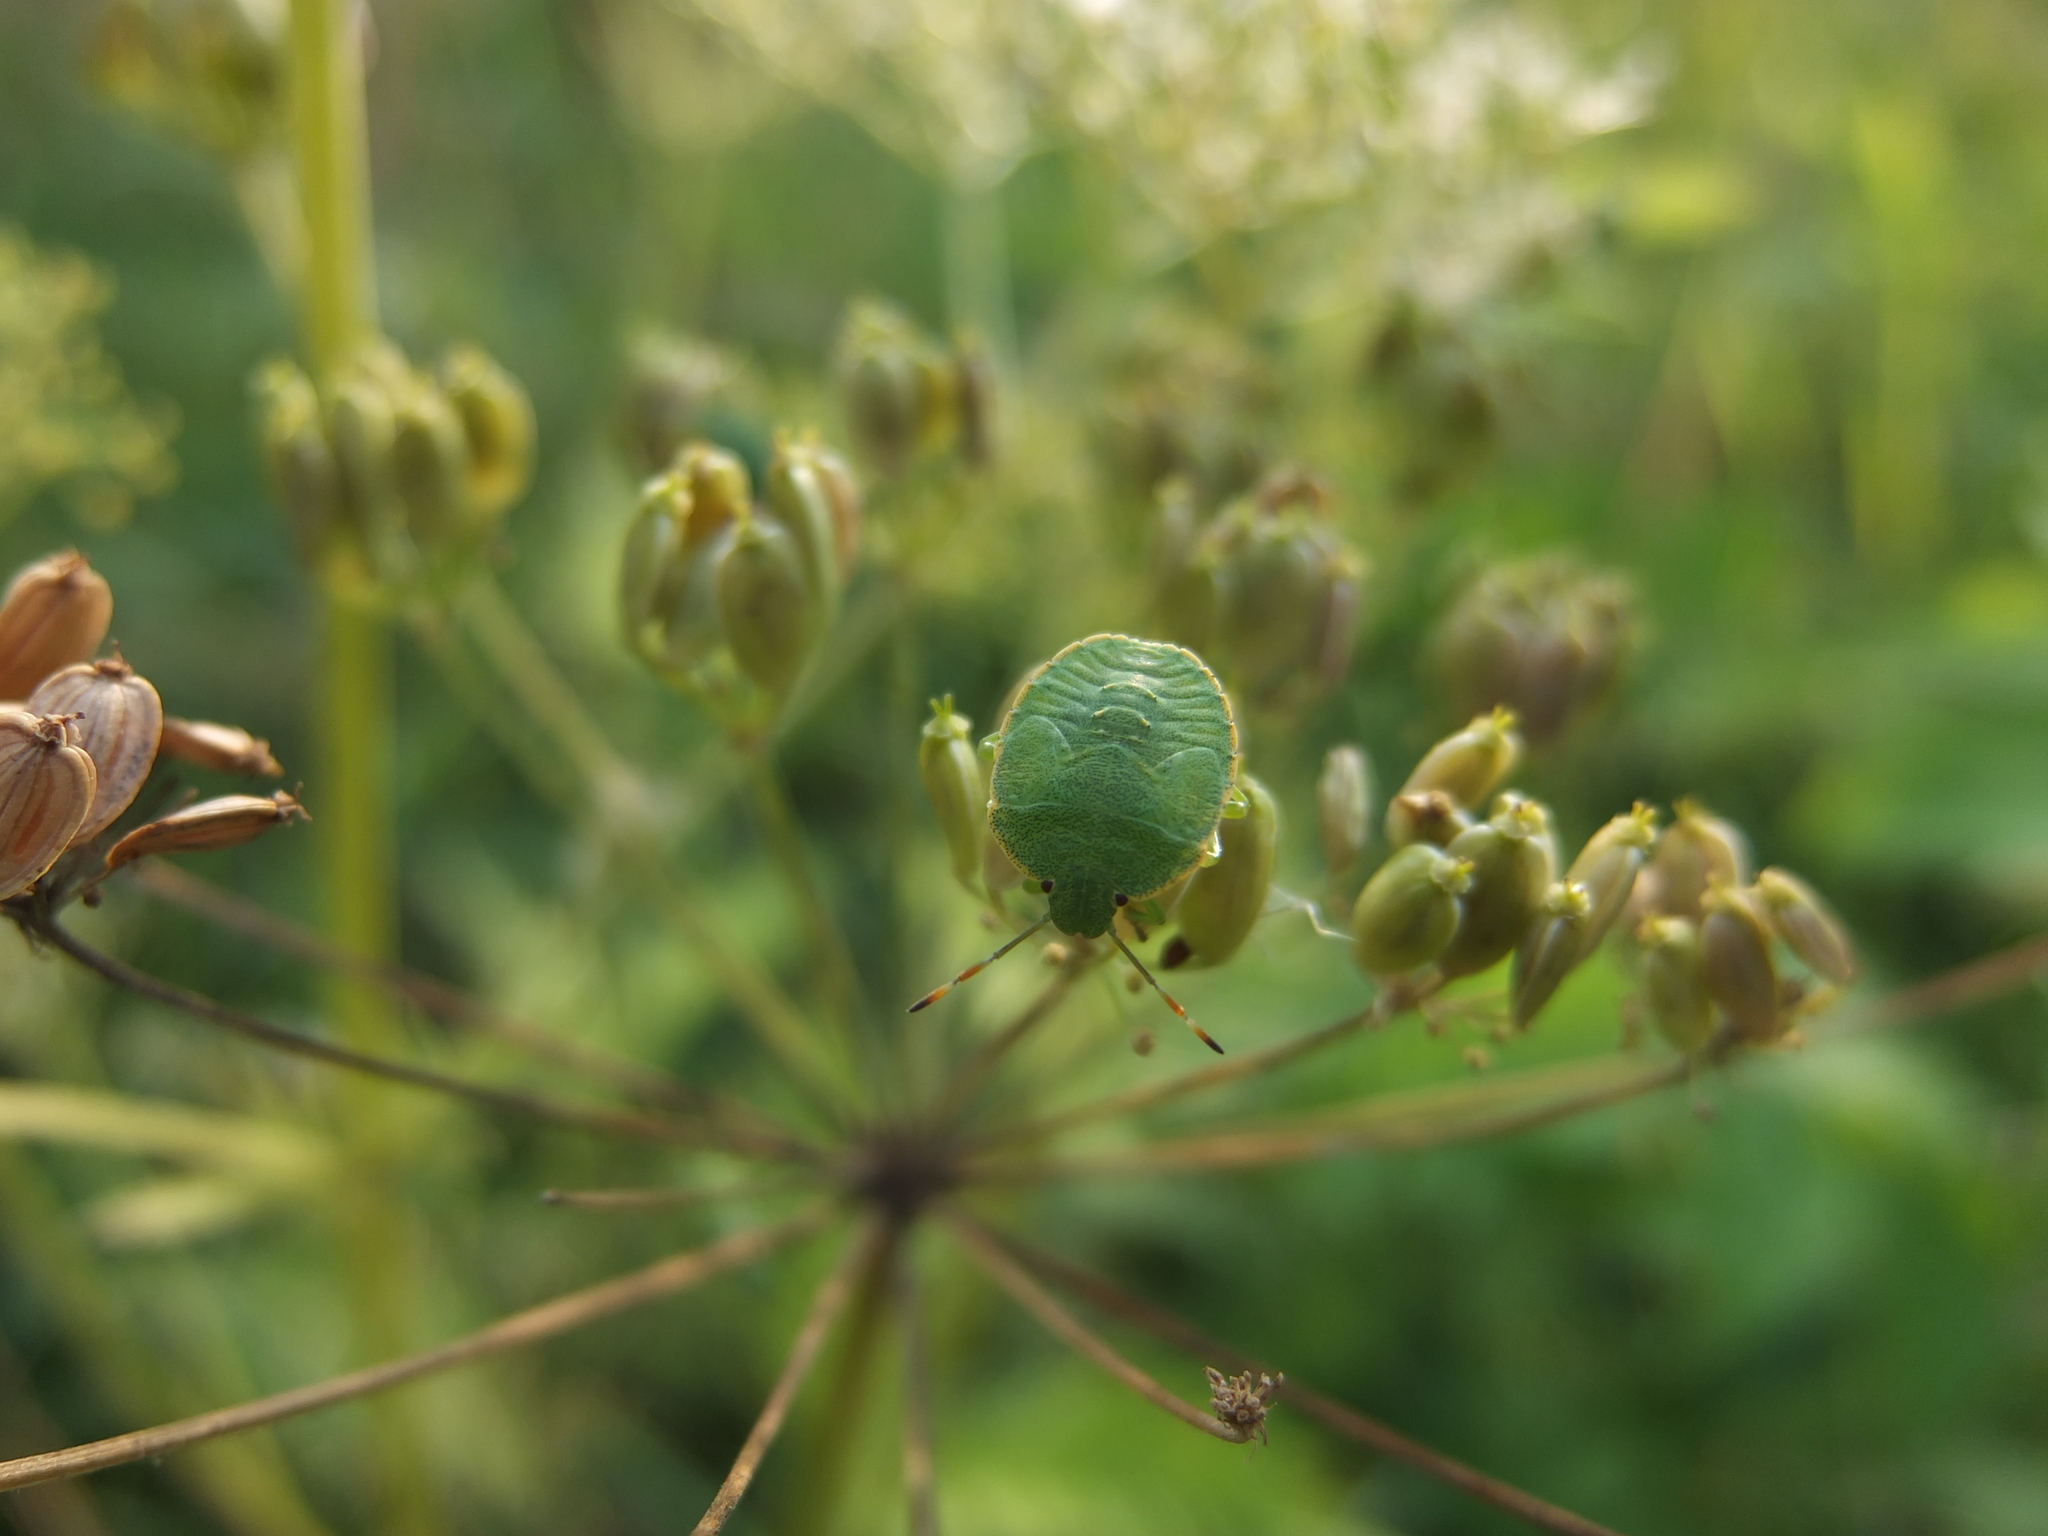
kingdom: Animalia
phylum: Arthropoda
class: Insecta
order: Hemiptera
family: Pentatomidae
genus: Palomena
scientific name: Palomena prasina
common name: Green shieldbug
